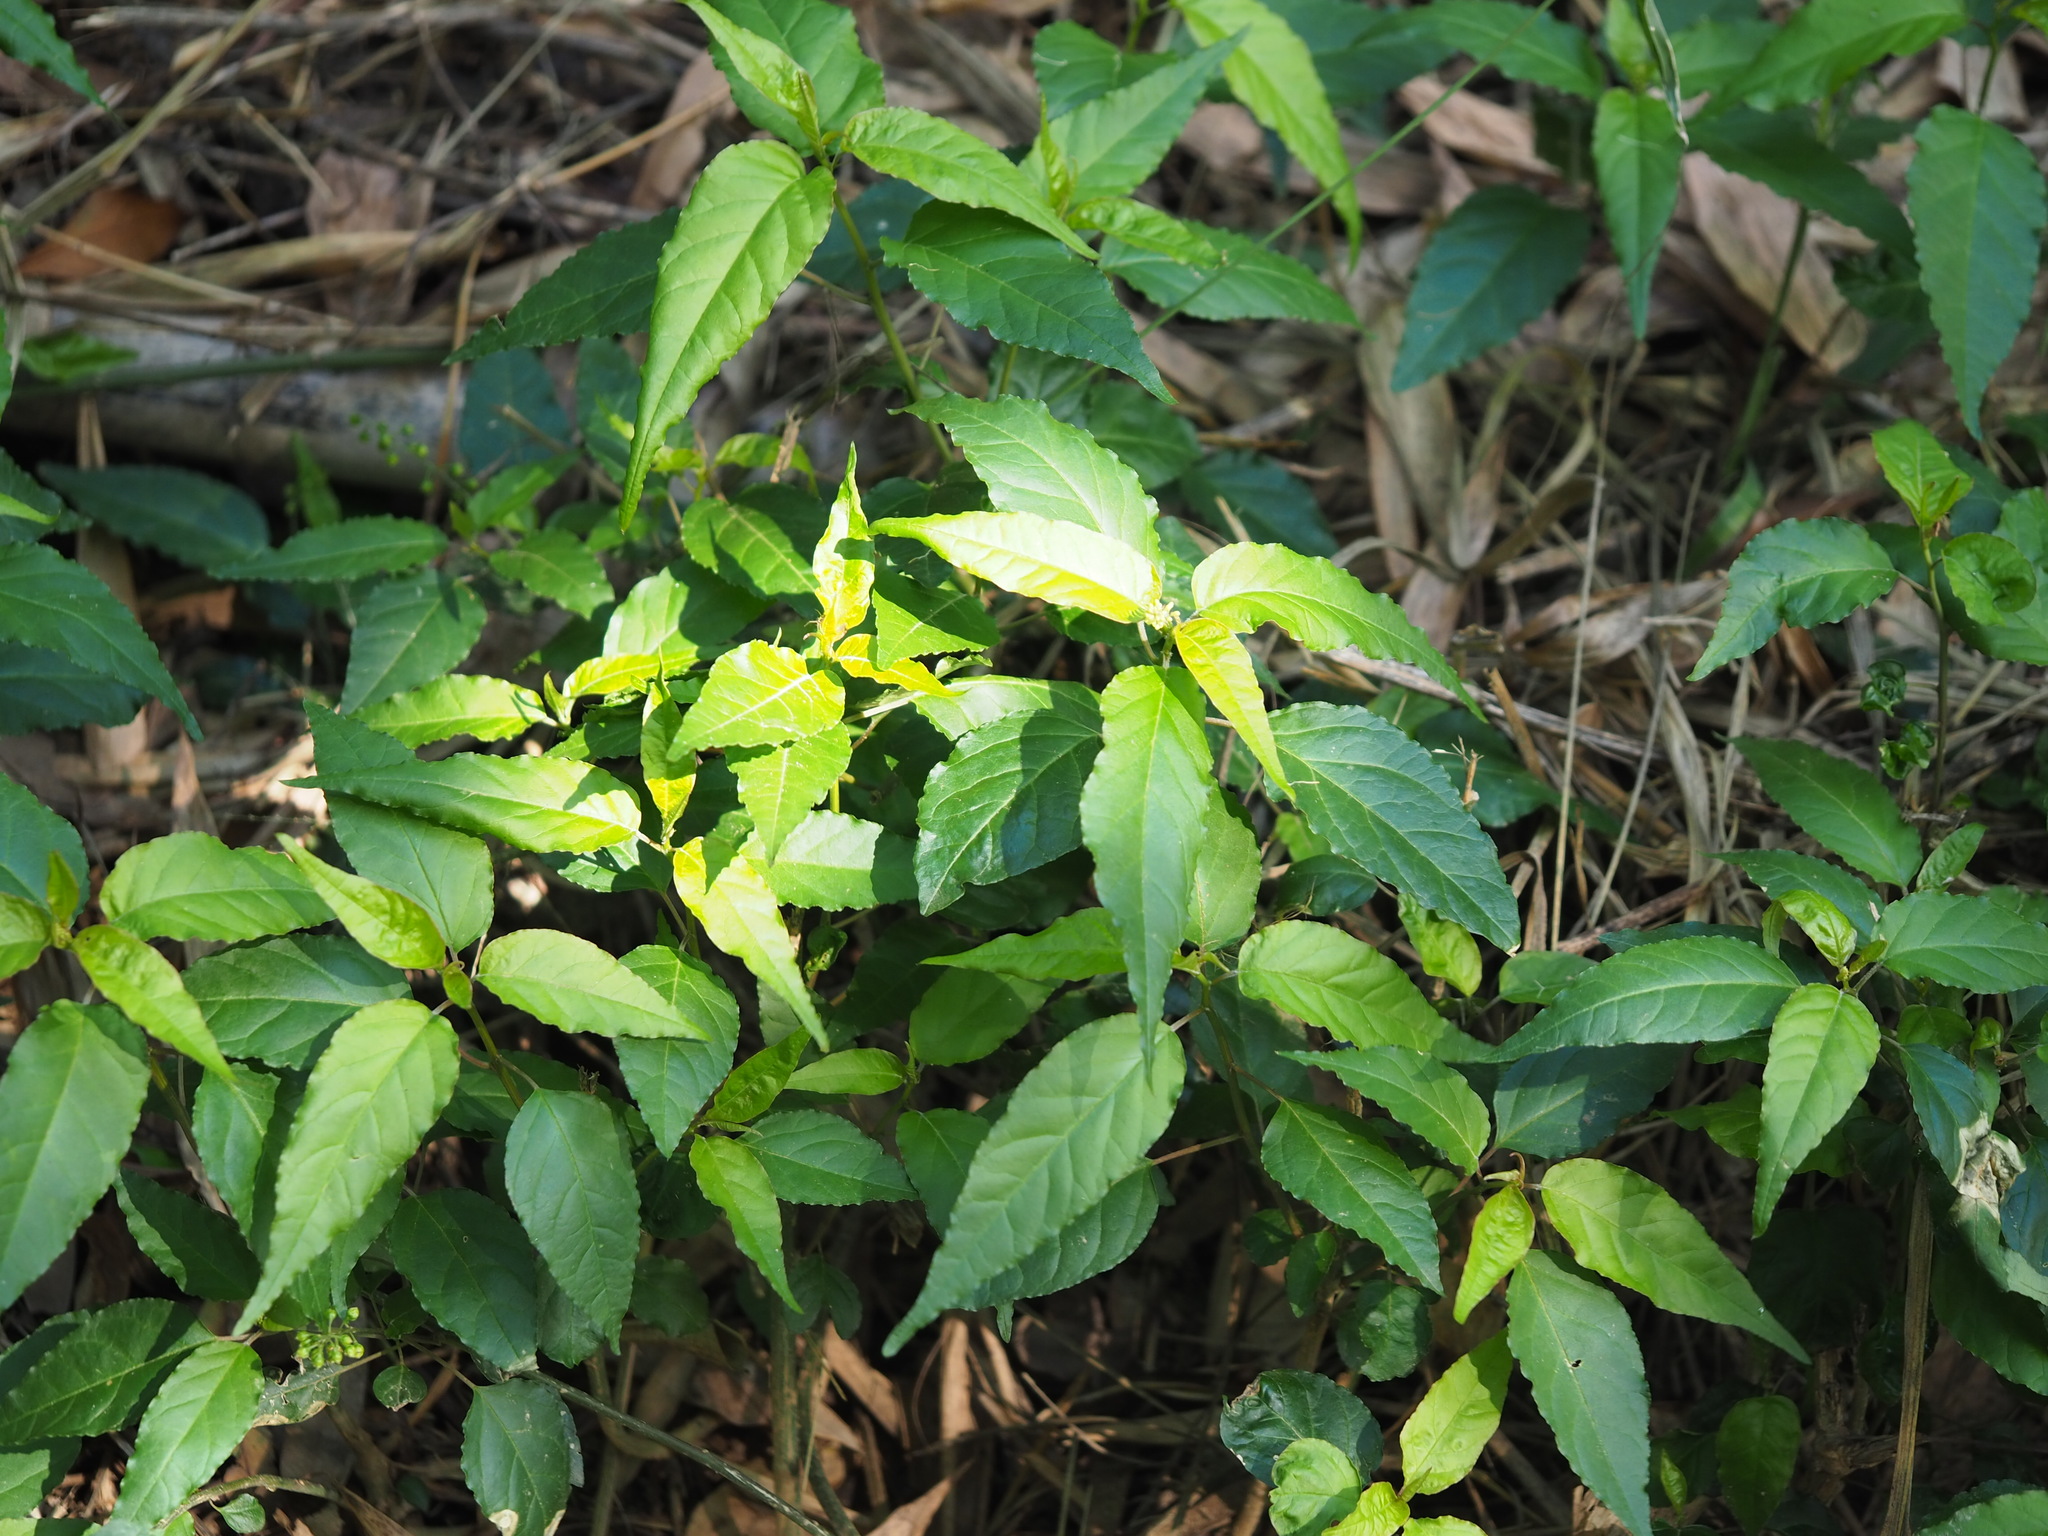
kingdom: Plantae
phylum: Tracheophyta
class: Magnoliopsida
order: Caryophyllales
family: Phytolaccaceae
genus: Rivina
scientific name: Rivina humilis
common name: Rougeplant
